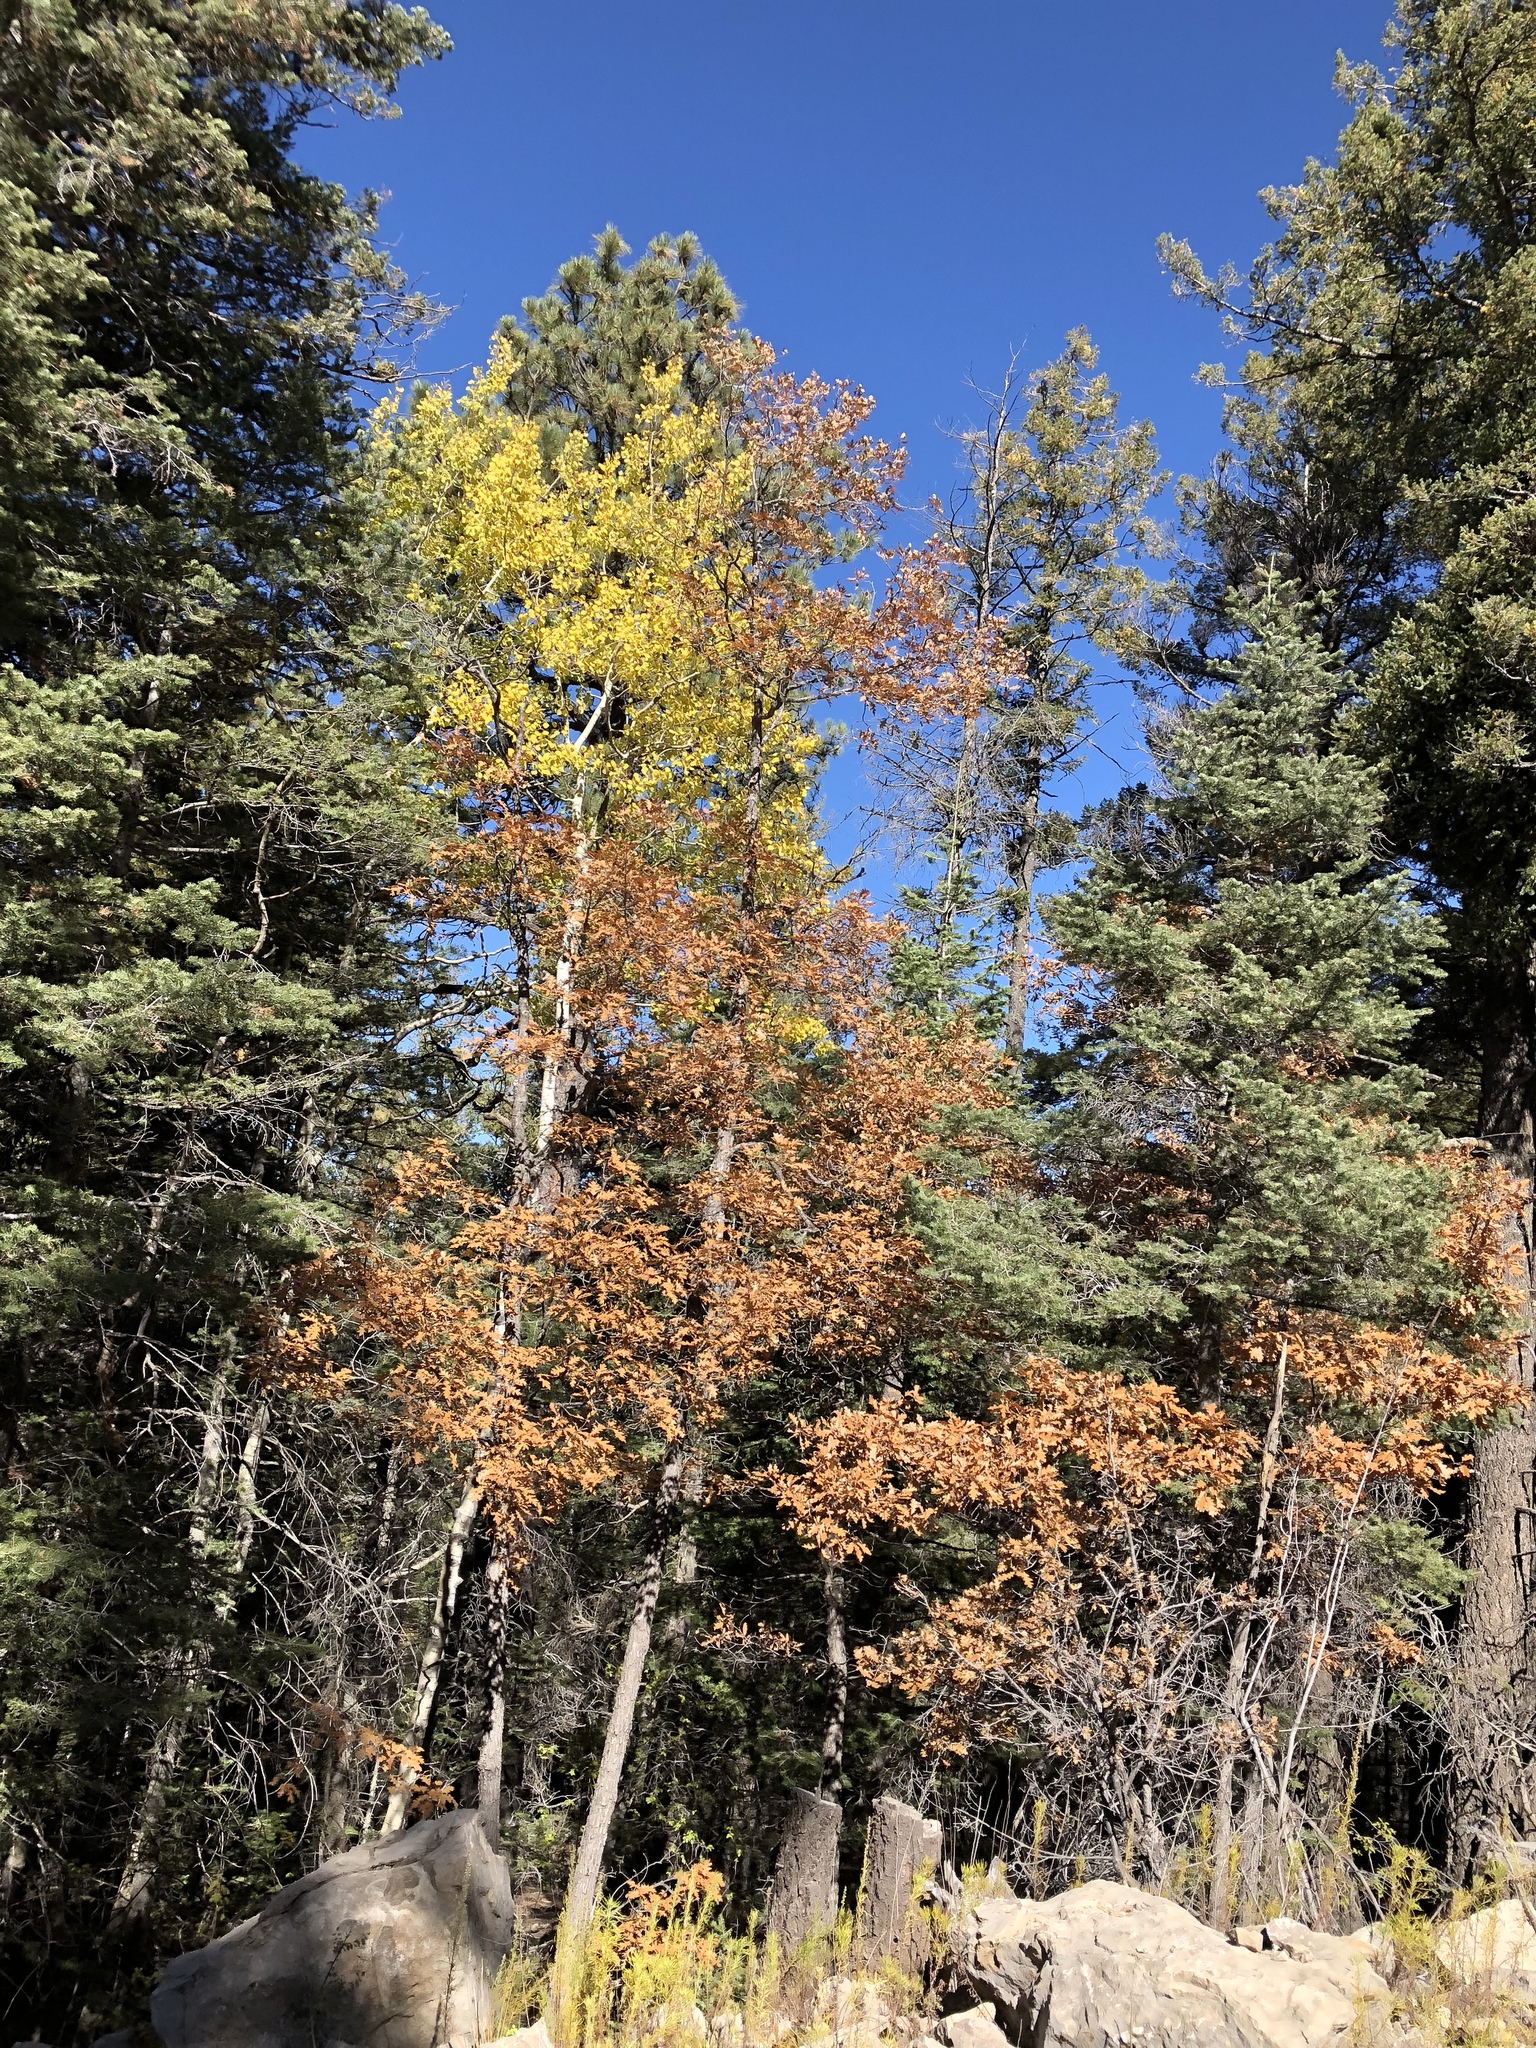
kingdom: Plantae
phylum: Tracheophyta
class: Magnoliopsida
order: Fagales
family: Fagaceae
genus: Quercus
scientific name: Quercus gambelii
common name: Gambel oak
